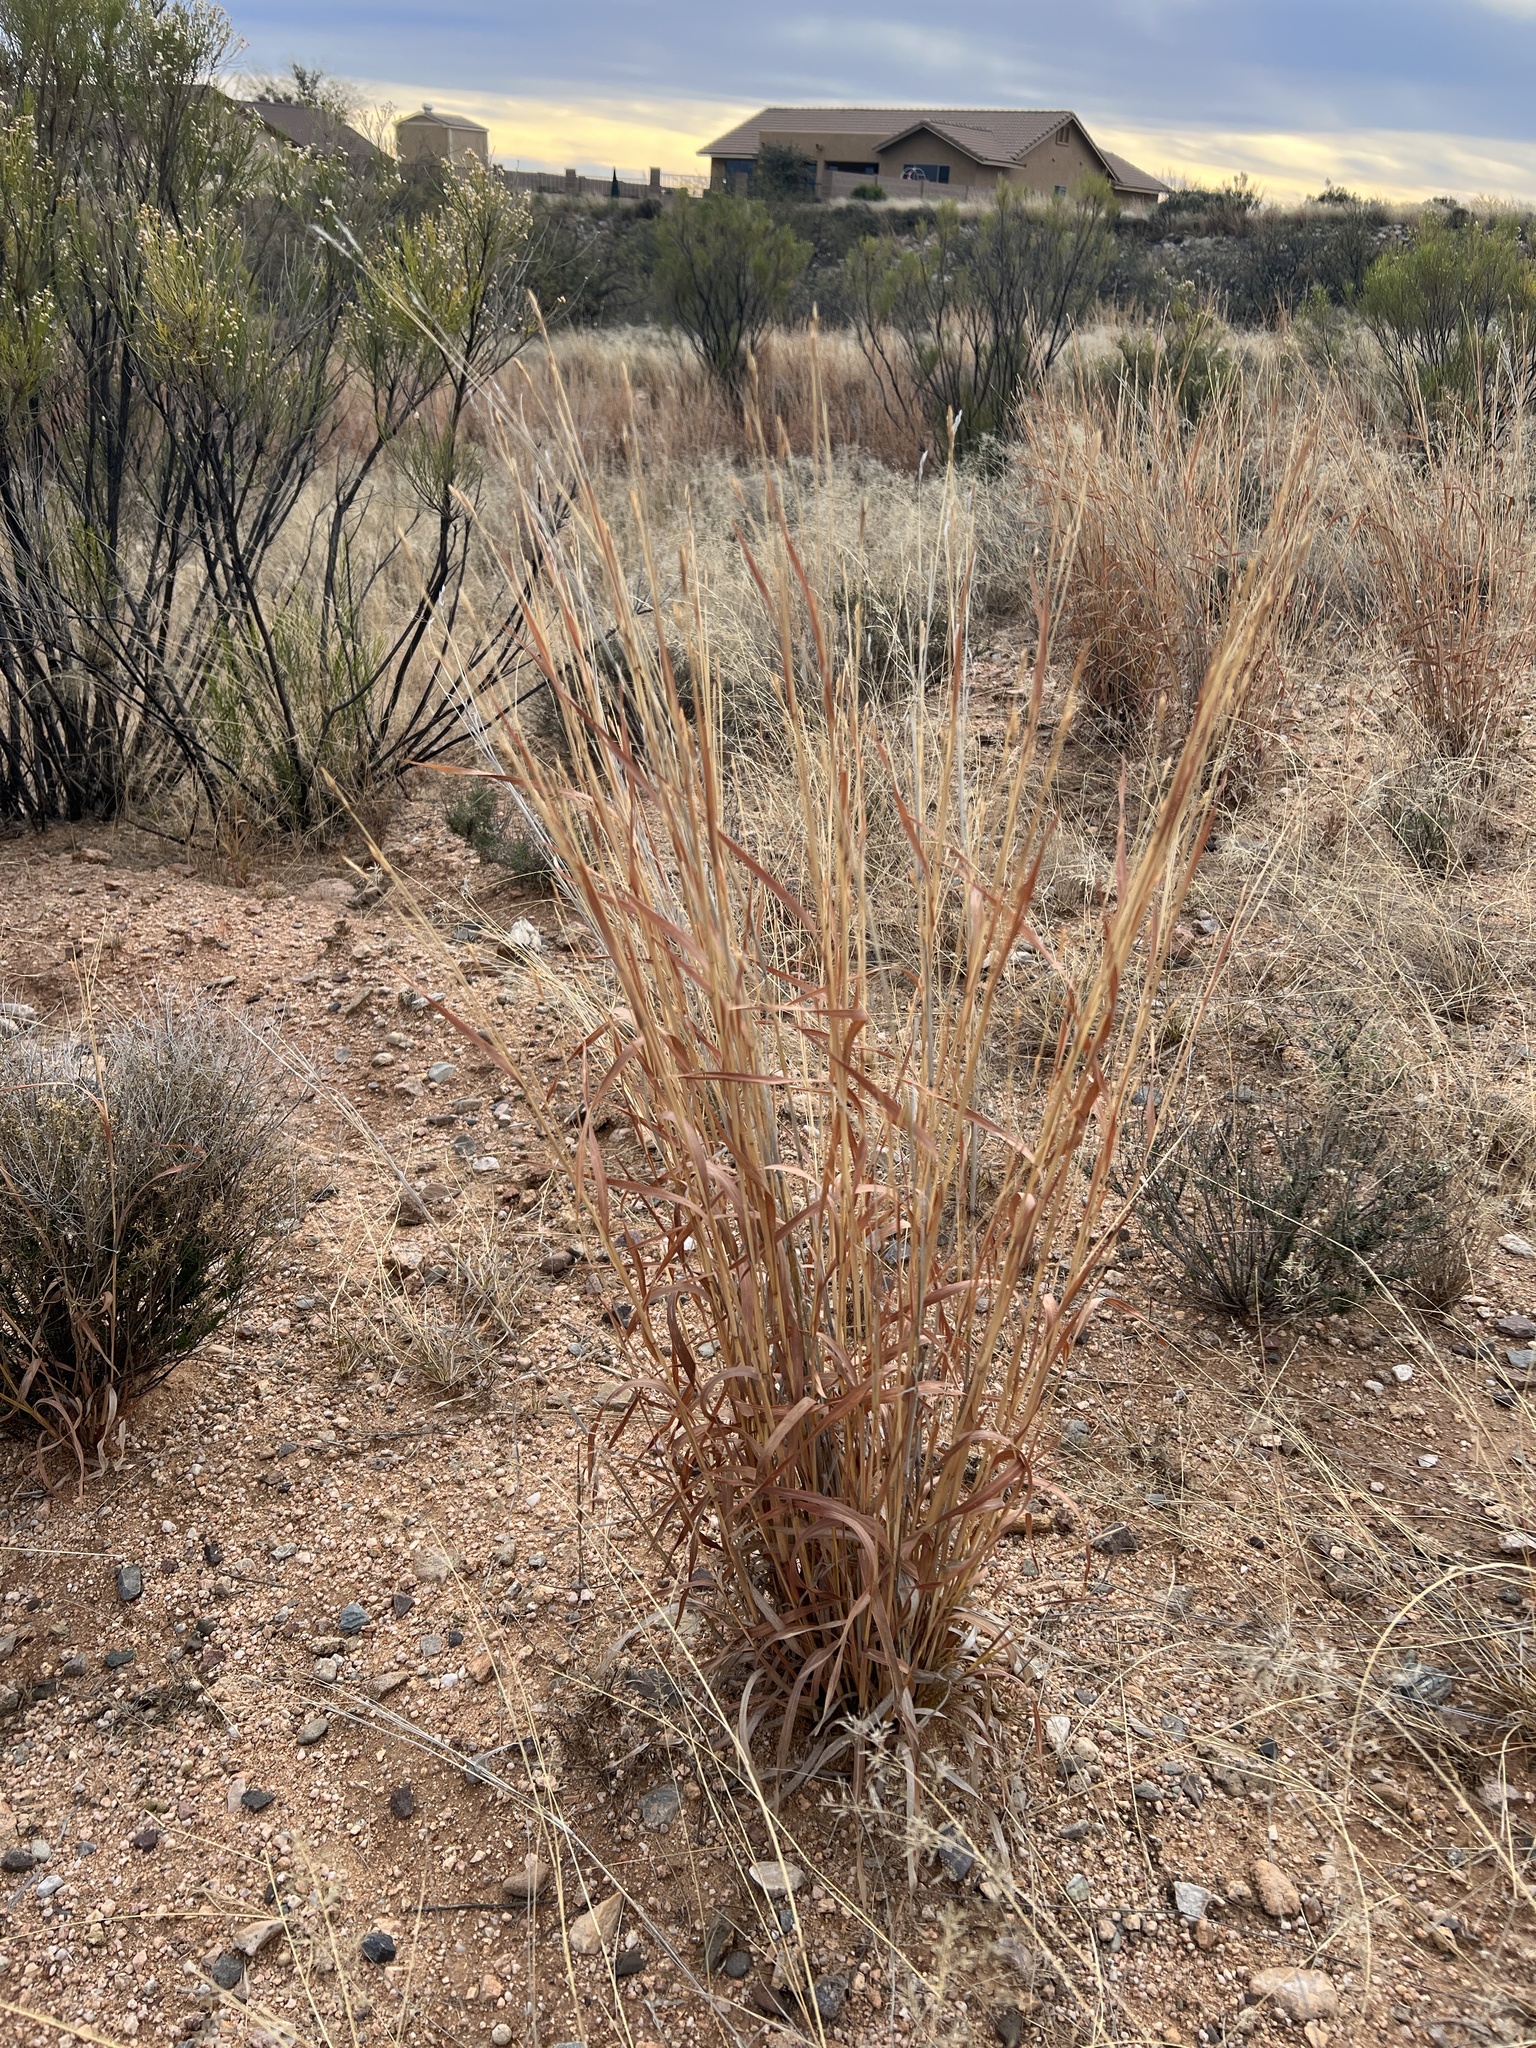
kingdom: Plantae
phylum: Tracheophyta
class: Liliopsida
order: Poales
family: Poaceae
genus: Heteropogon
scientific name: Heteropogon contortus
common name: Tanglehead
